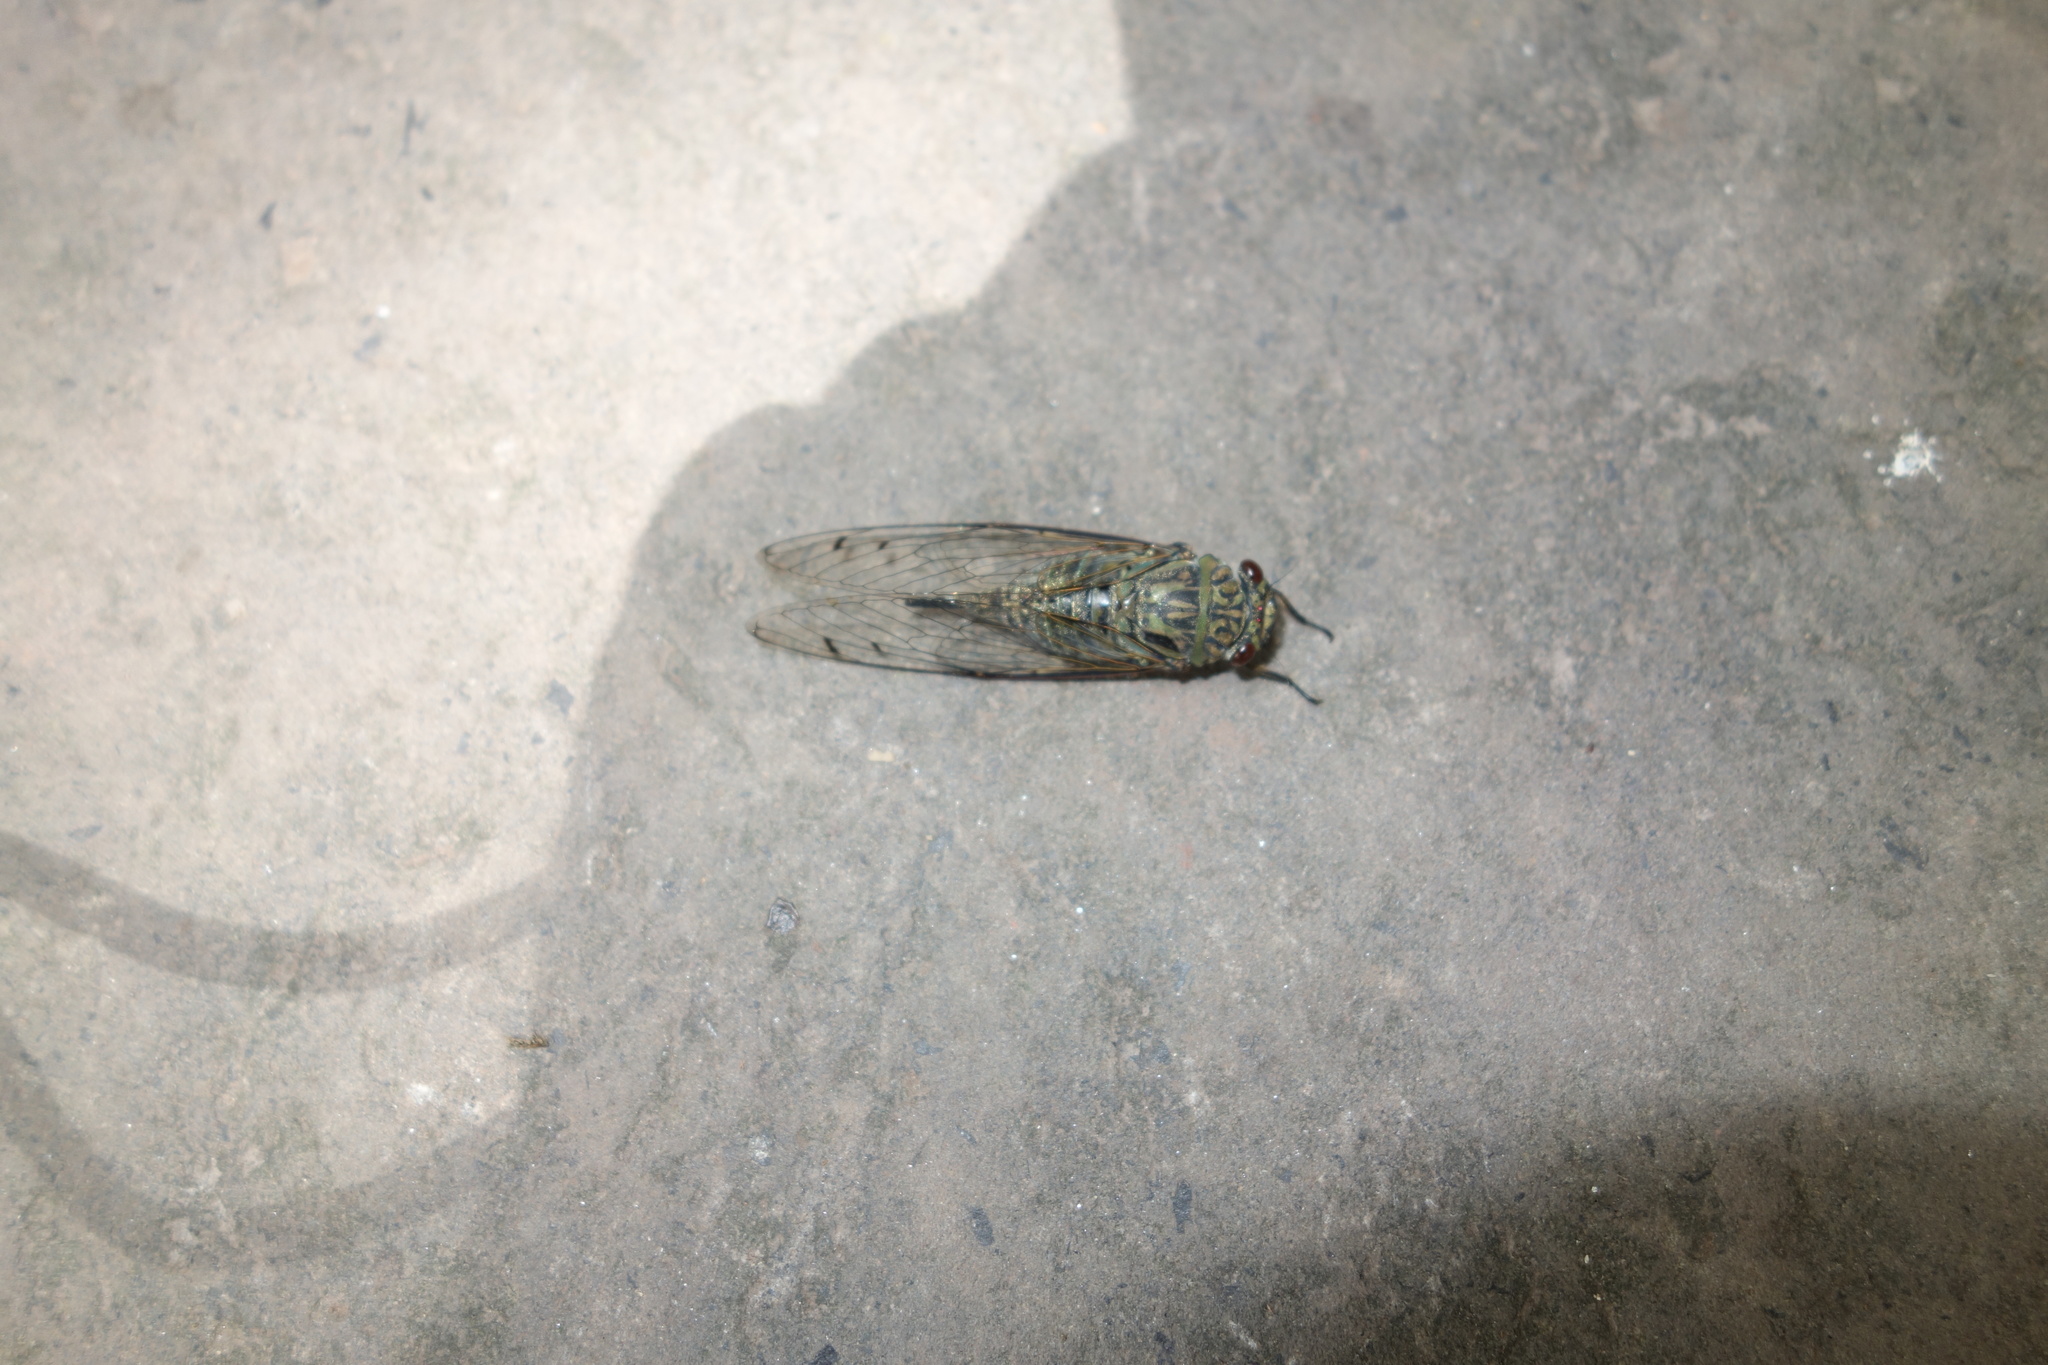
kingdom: Animalia
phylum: Arthropoda
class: Insecta
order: Hemiptera
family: Cicadidae
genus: Meimuna
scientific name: Meimuna opalifera
